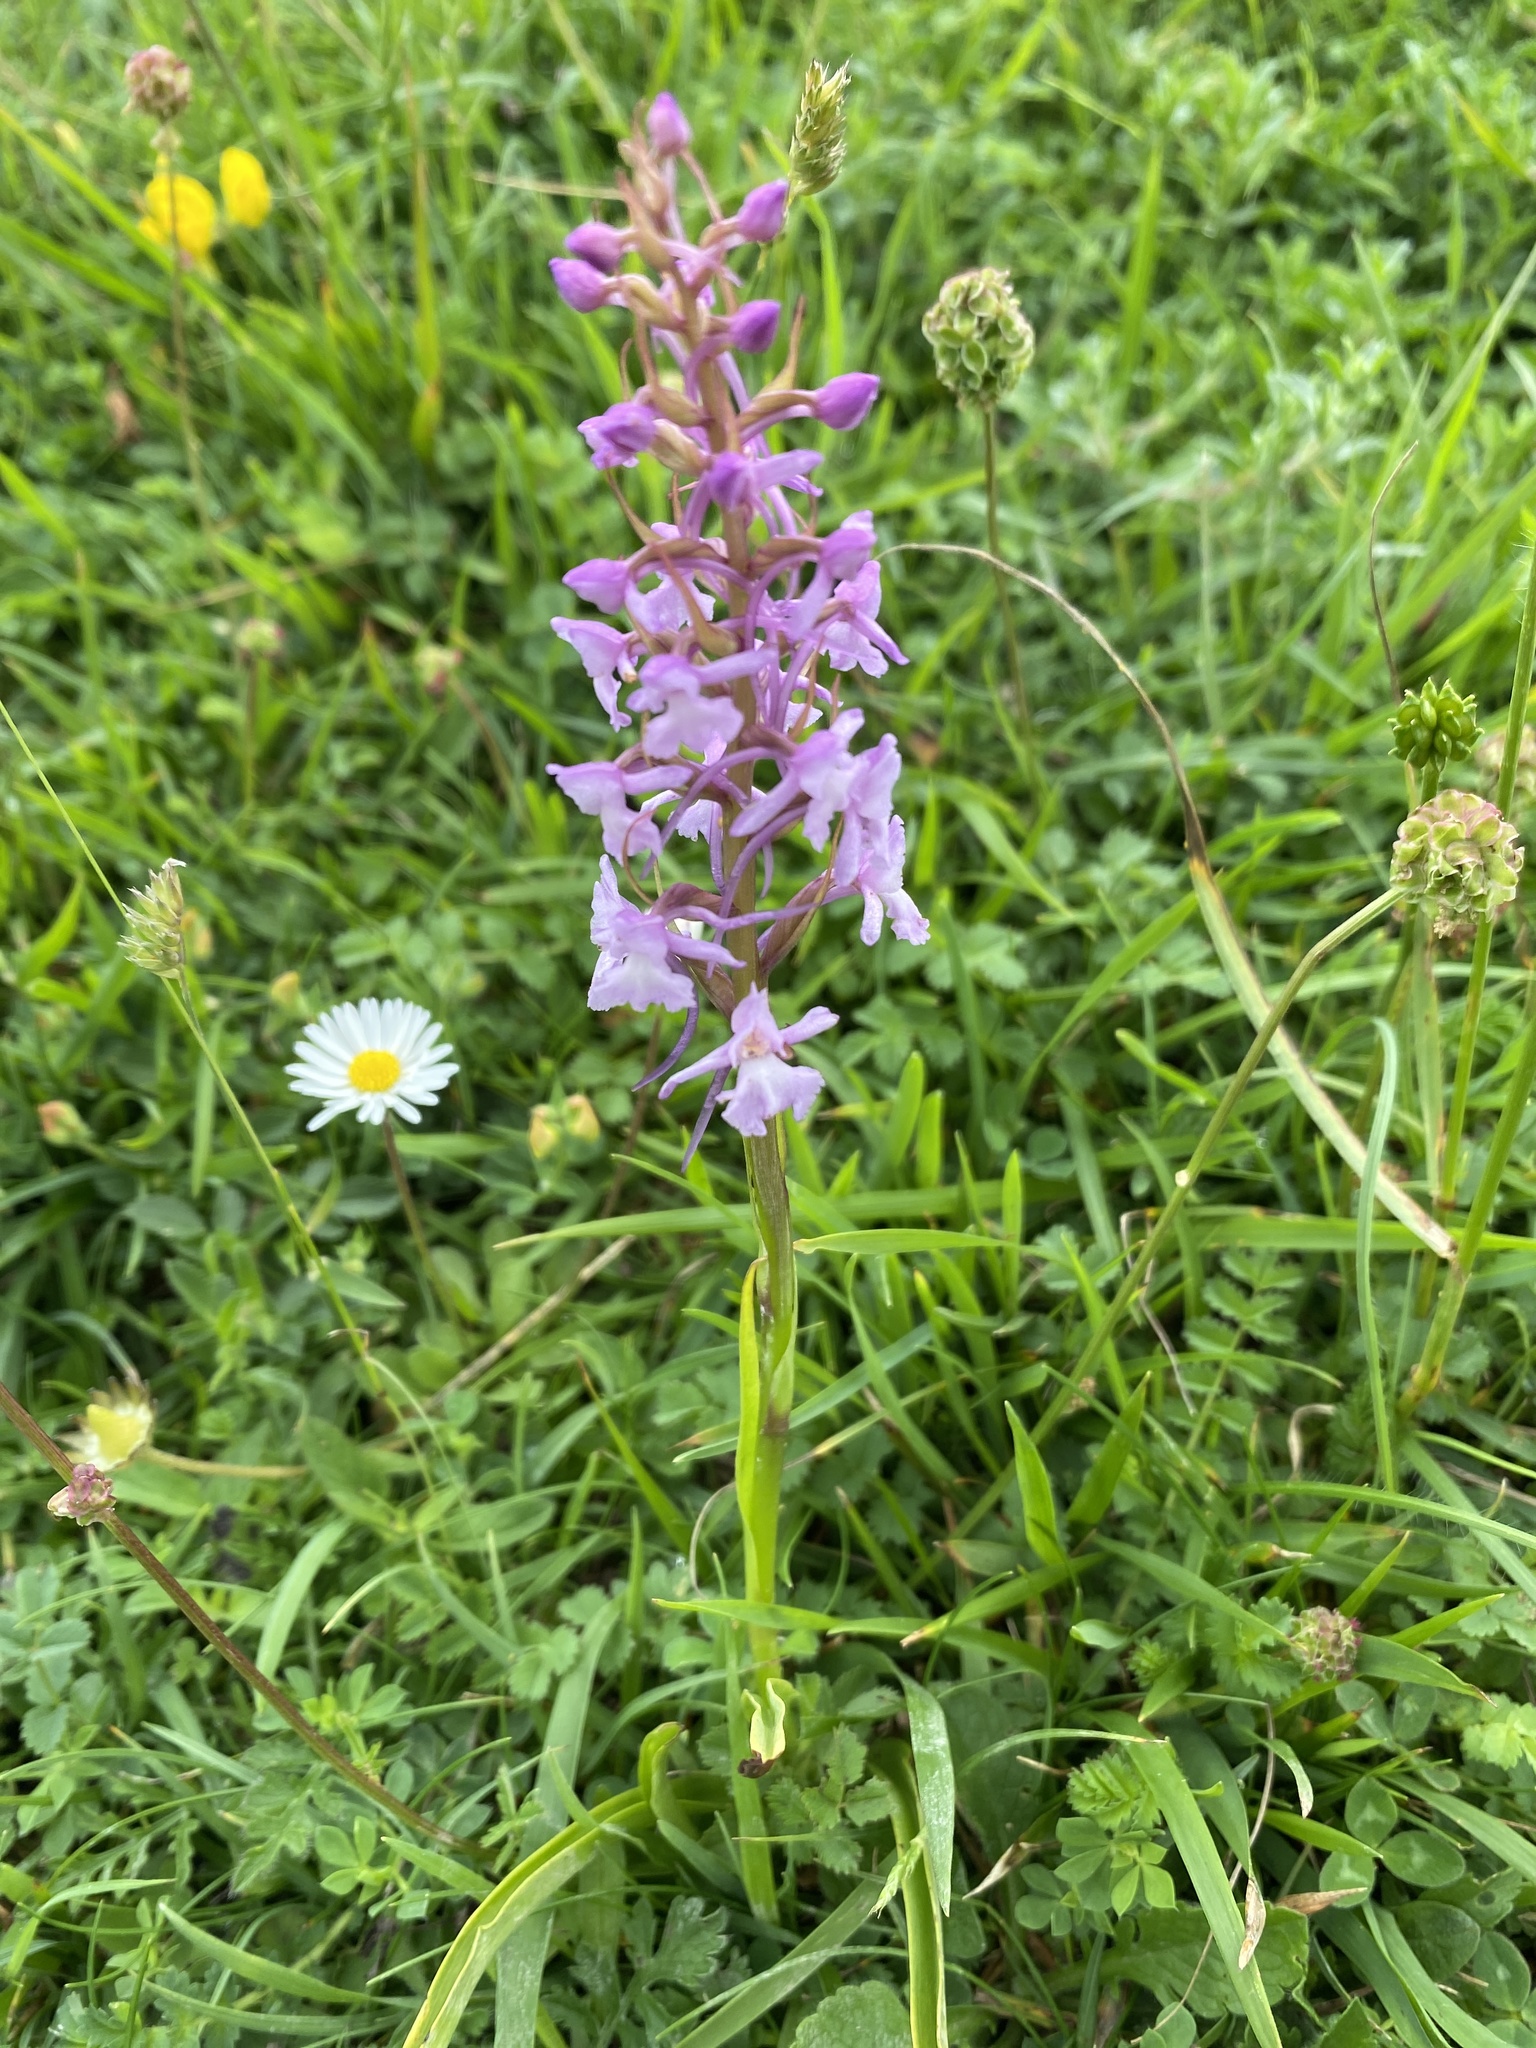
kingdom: Plantae
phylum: Tracheophyta
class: Liliopsida
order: Asparagales
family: Orchidaceae
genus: Gymnadenia
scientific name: Gymnadenia conopsea
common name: Fragrant orchid
